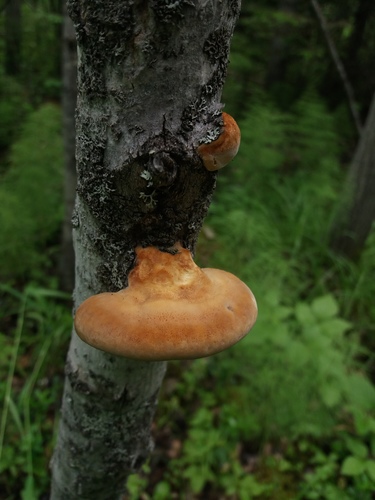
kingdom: Fungi
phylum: Basidiomycota
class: Agaricomycetes
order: Hymenochaetales
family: Hymenochaetaceae
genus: Inocutis
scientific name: Inocutis rheades
